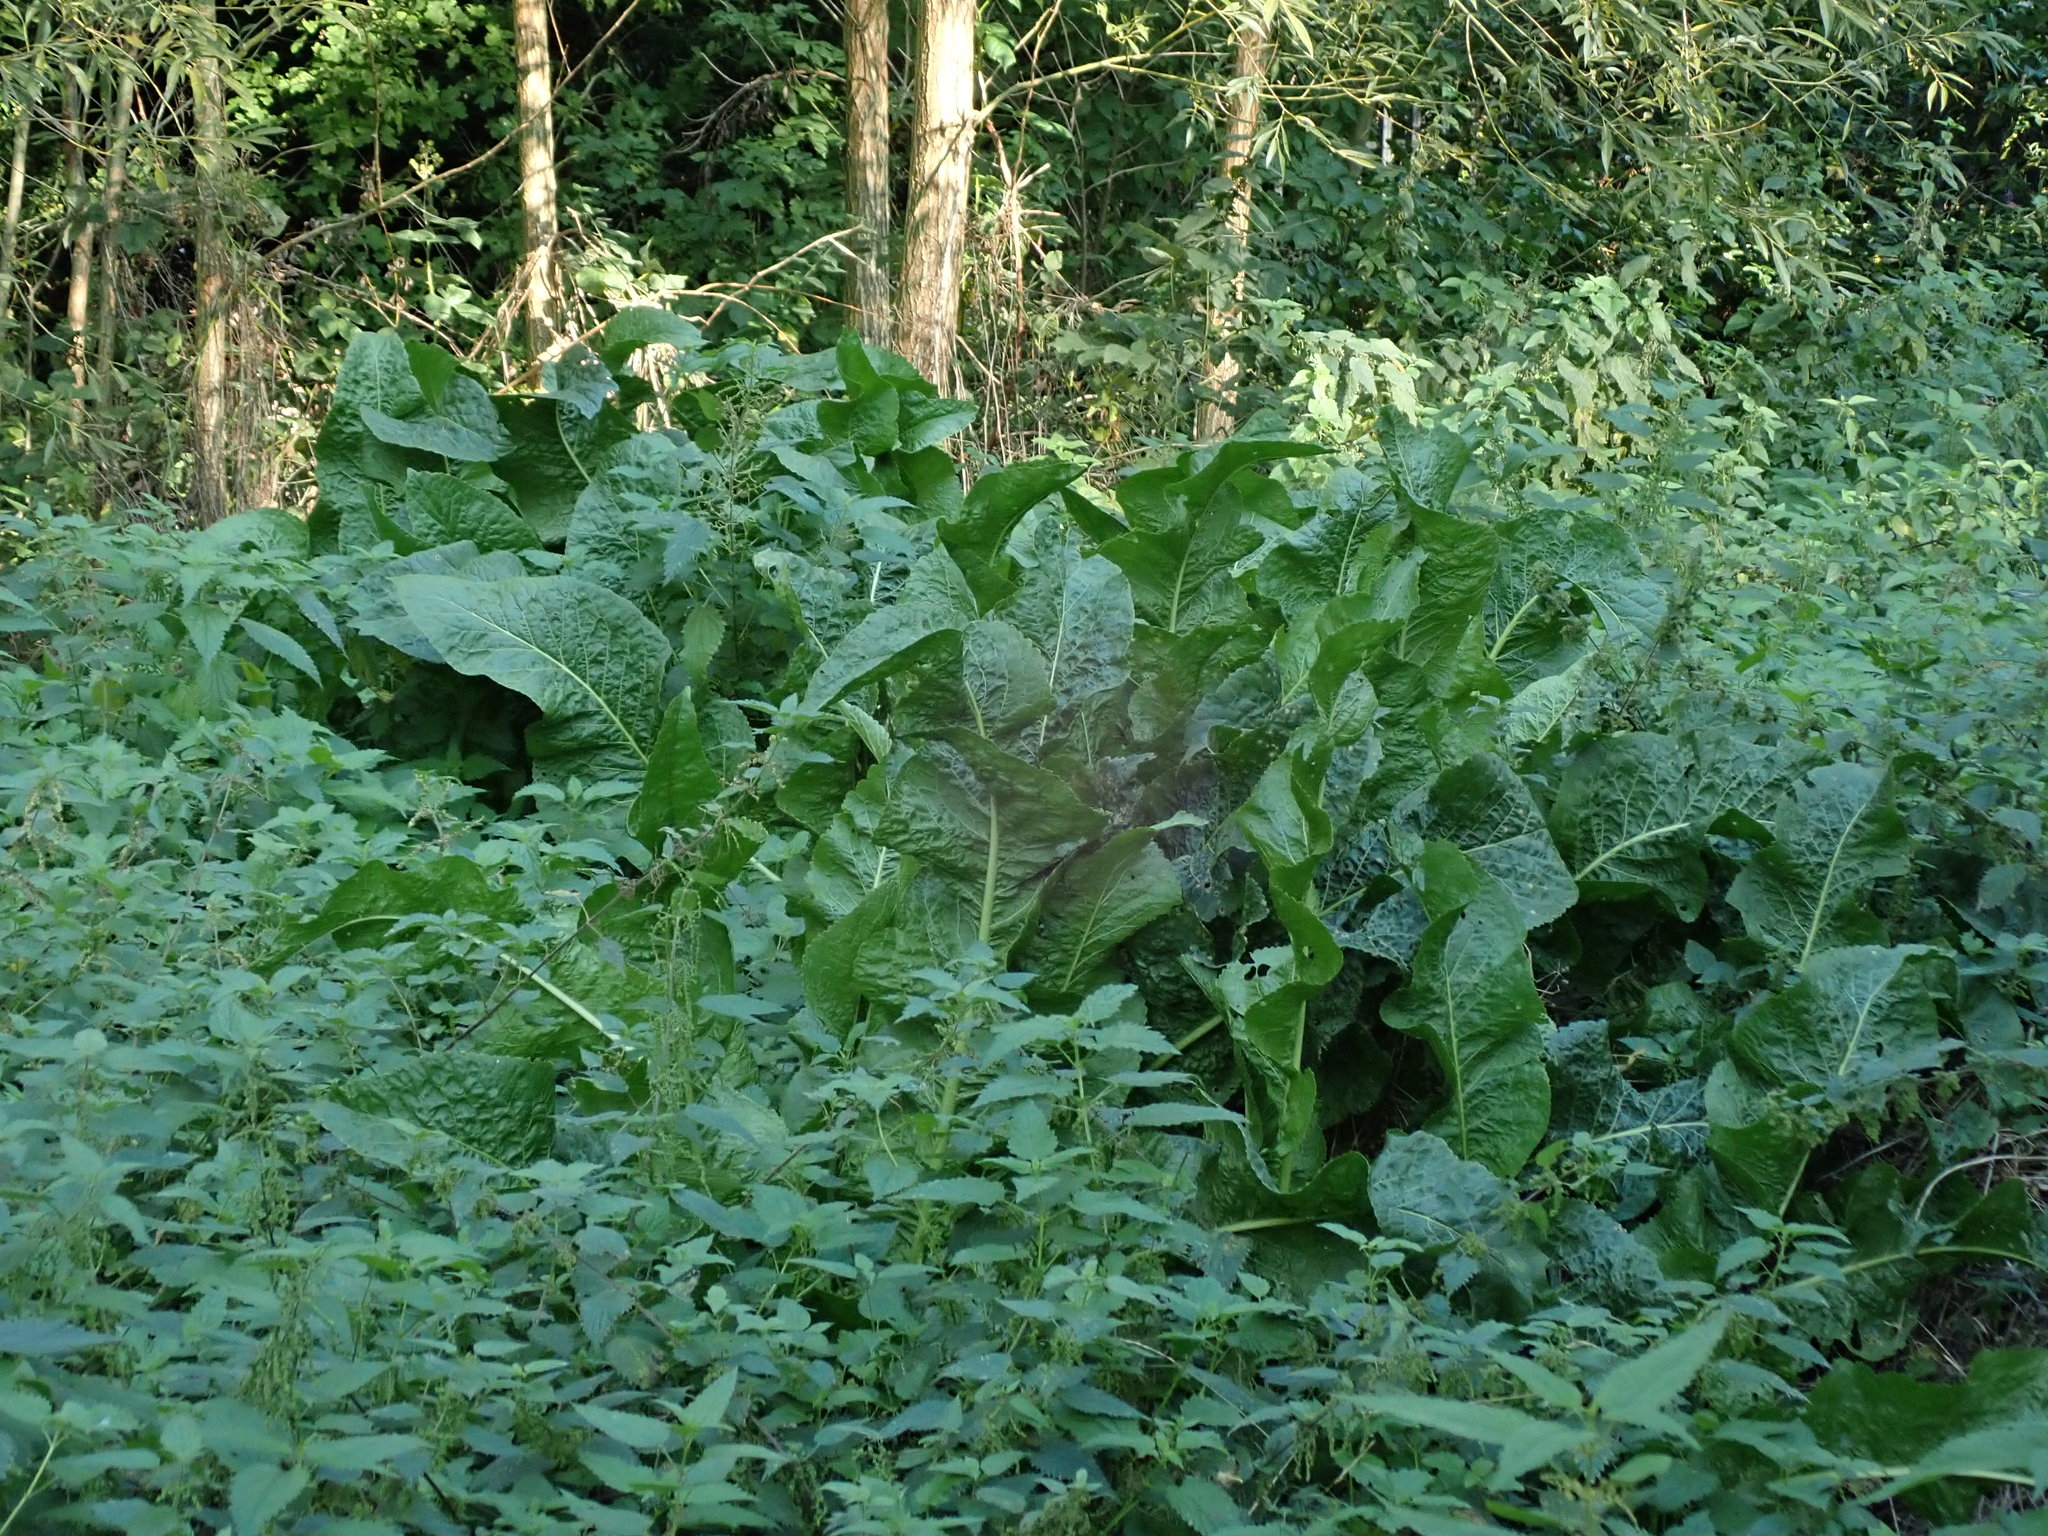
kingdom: Plantae
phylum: Tracheophyta
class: Magnoliopsida
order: Brassicales
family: Brassicaceae
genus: Armoracia
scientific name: Armoracia rusticana
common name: Horseradish
